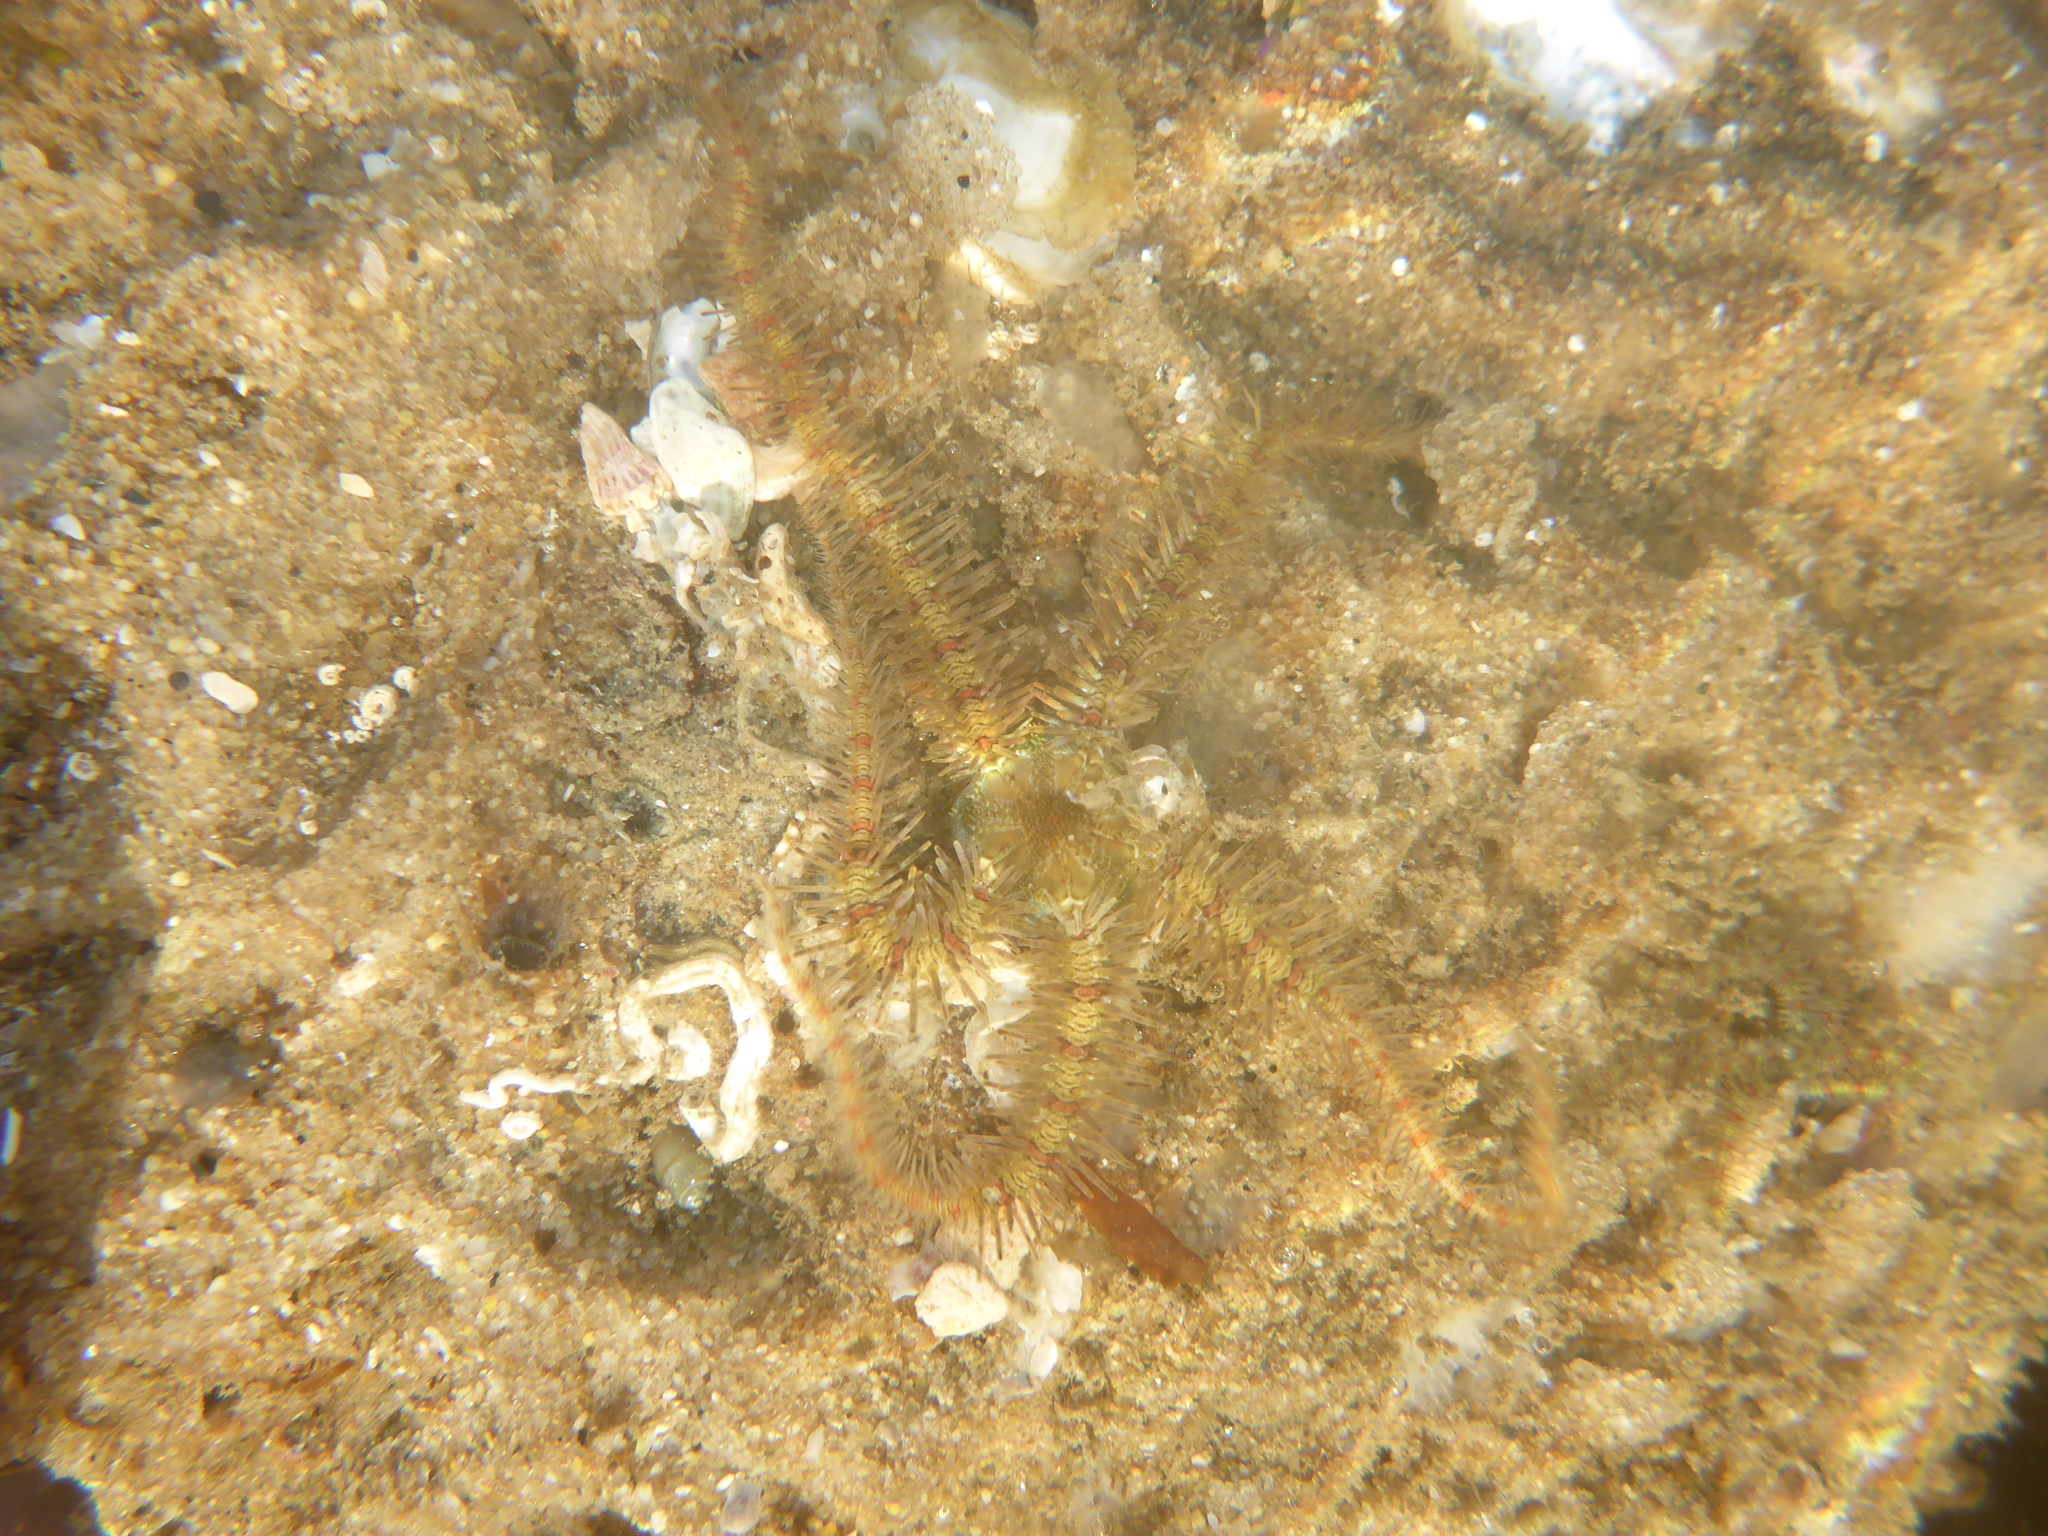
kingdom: Animalia
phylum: Echinodermata
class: Ophiuroidea
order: Amphilepidida
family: Ophiotrichidae
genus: Ophiothrix
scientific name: Ophiothrix spiculata
